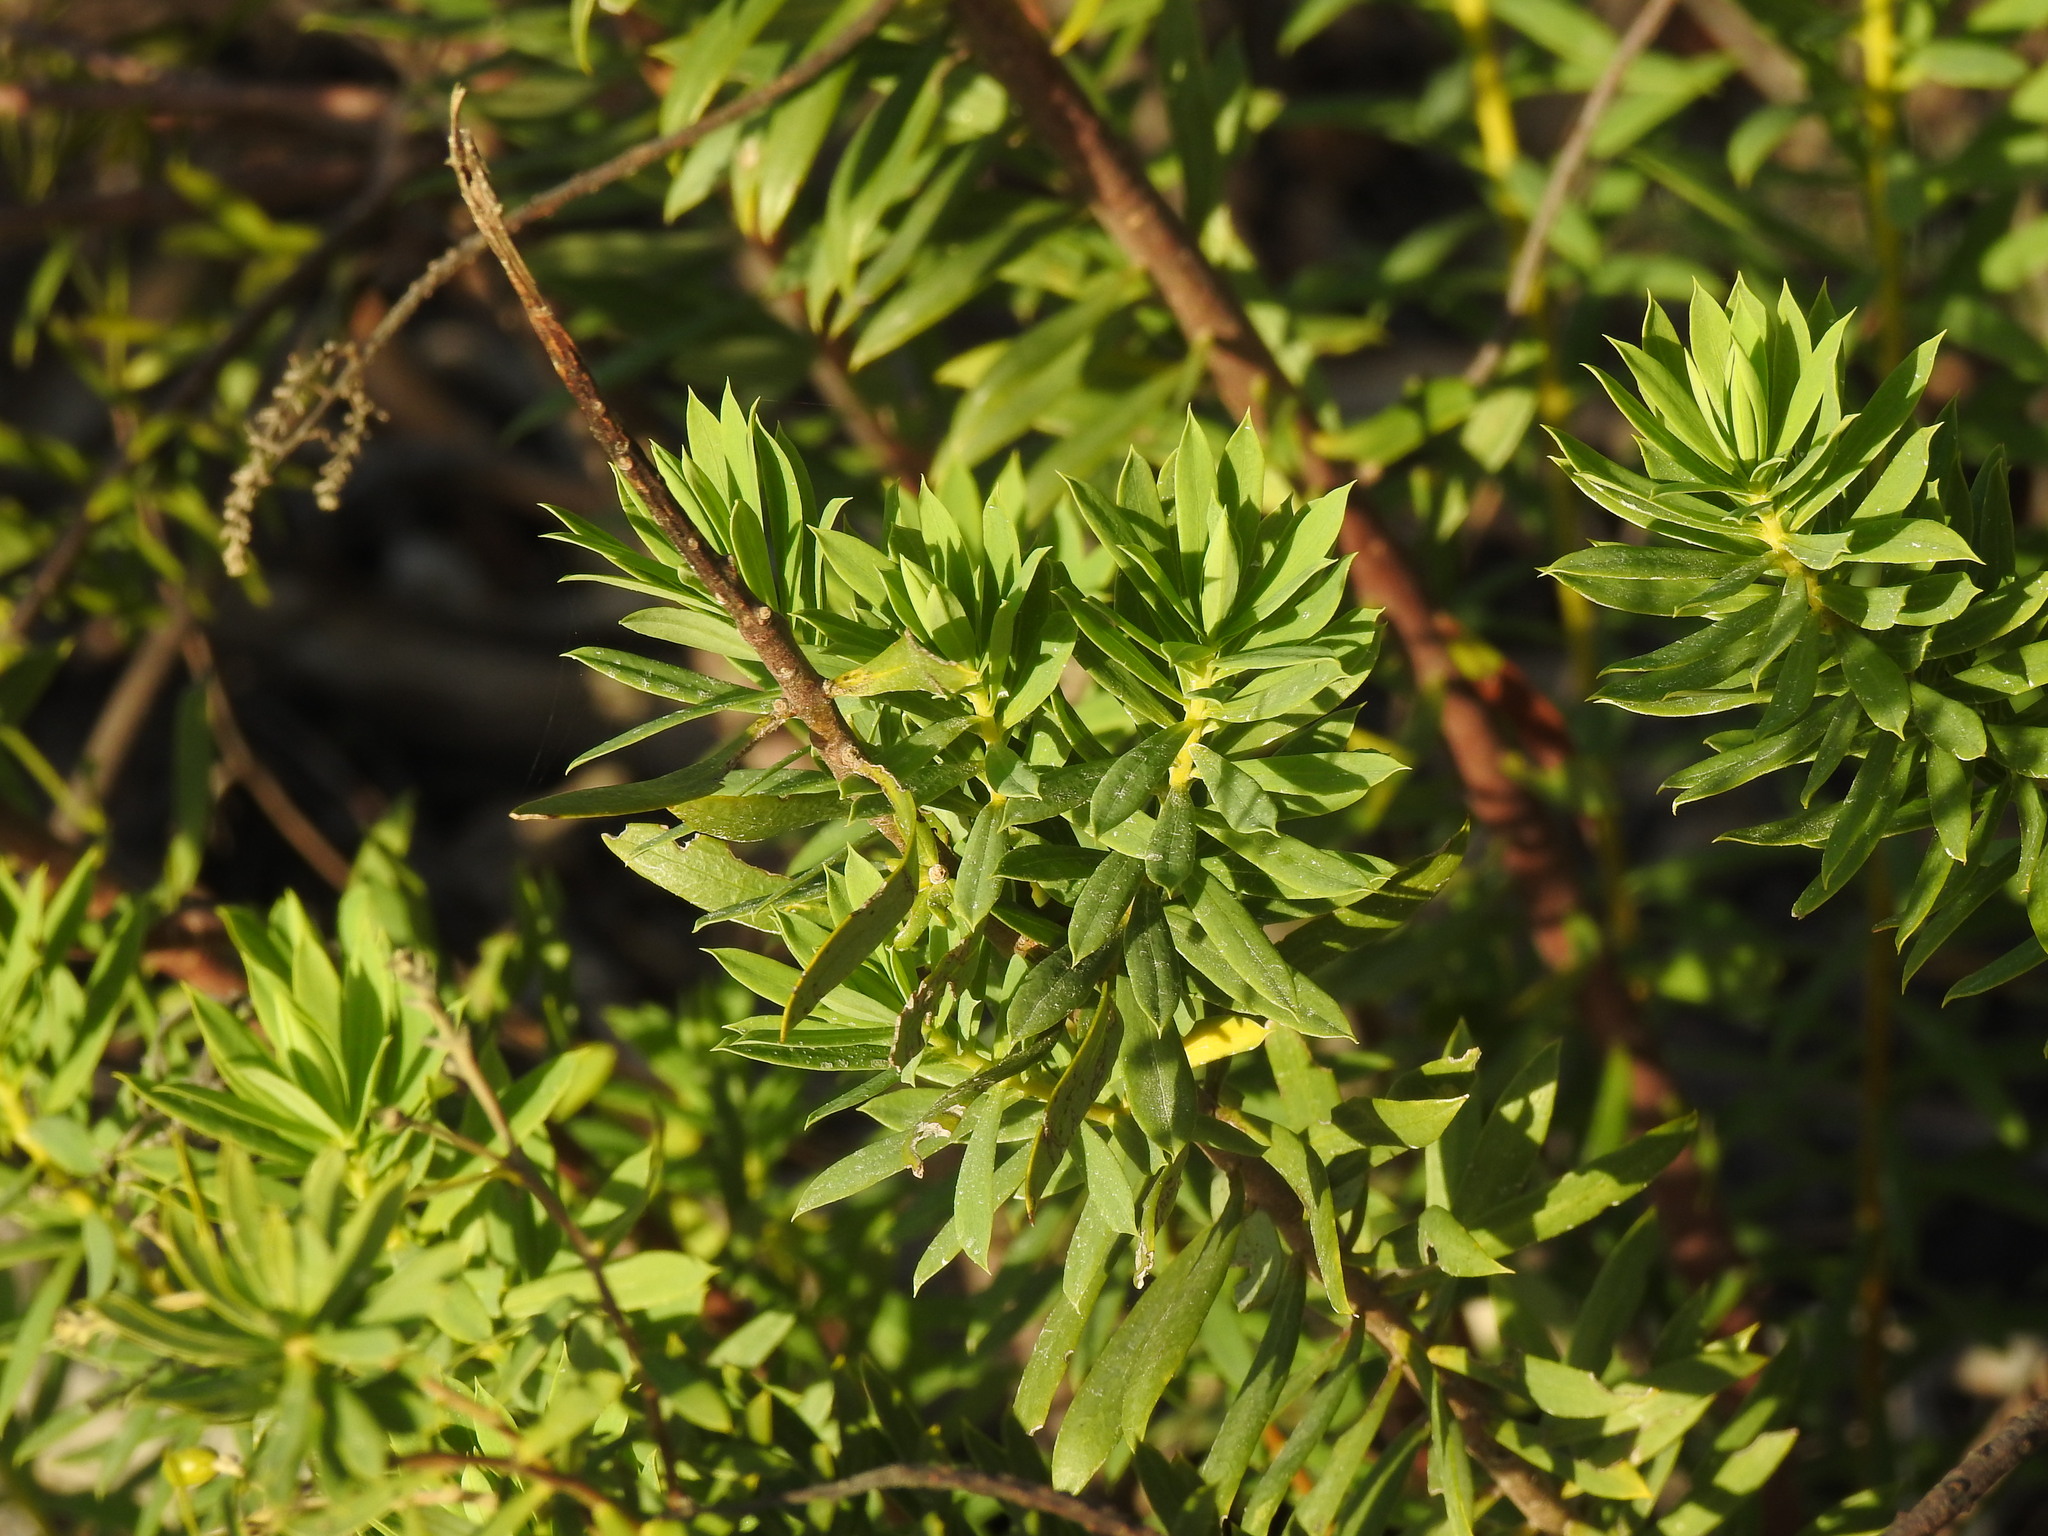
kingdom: Plantae
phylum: Tracheophyta
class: Magnoliopsida
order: Malvales
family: Thymelaeaceae
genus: Daphne
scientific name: Daphne gnidium
